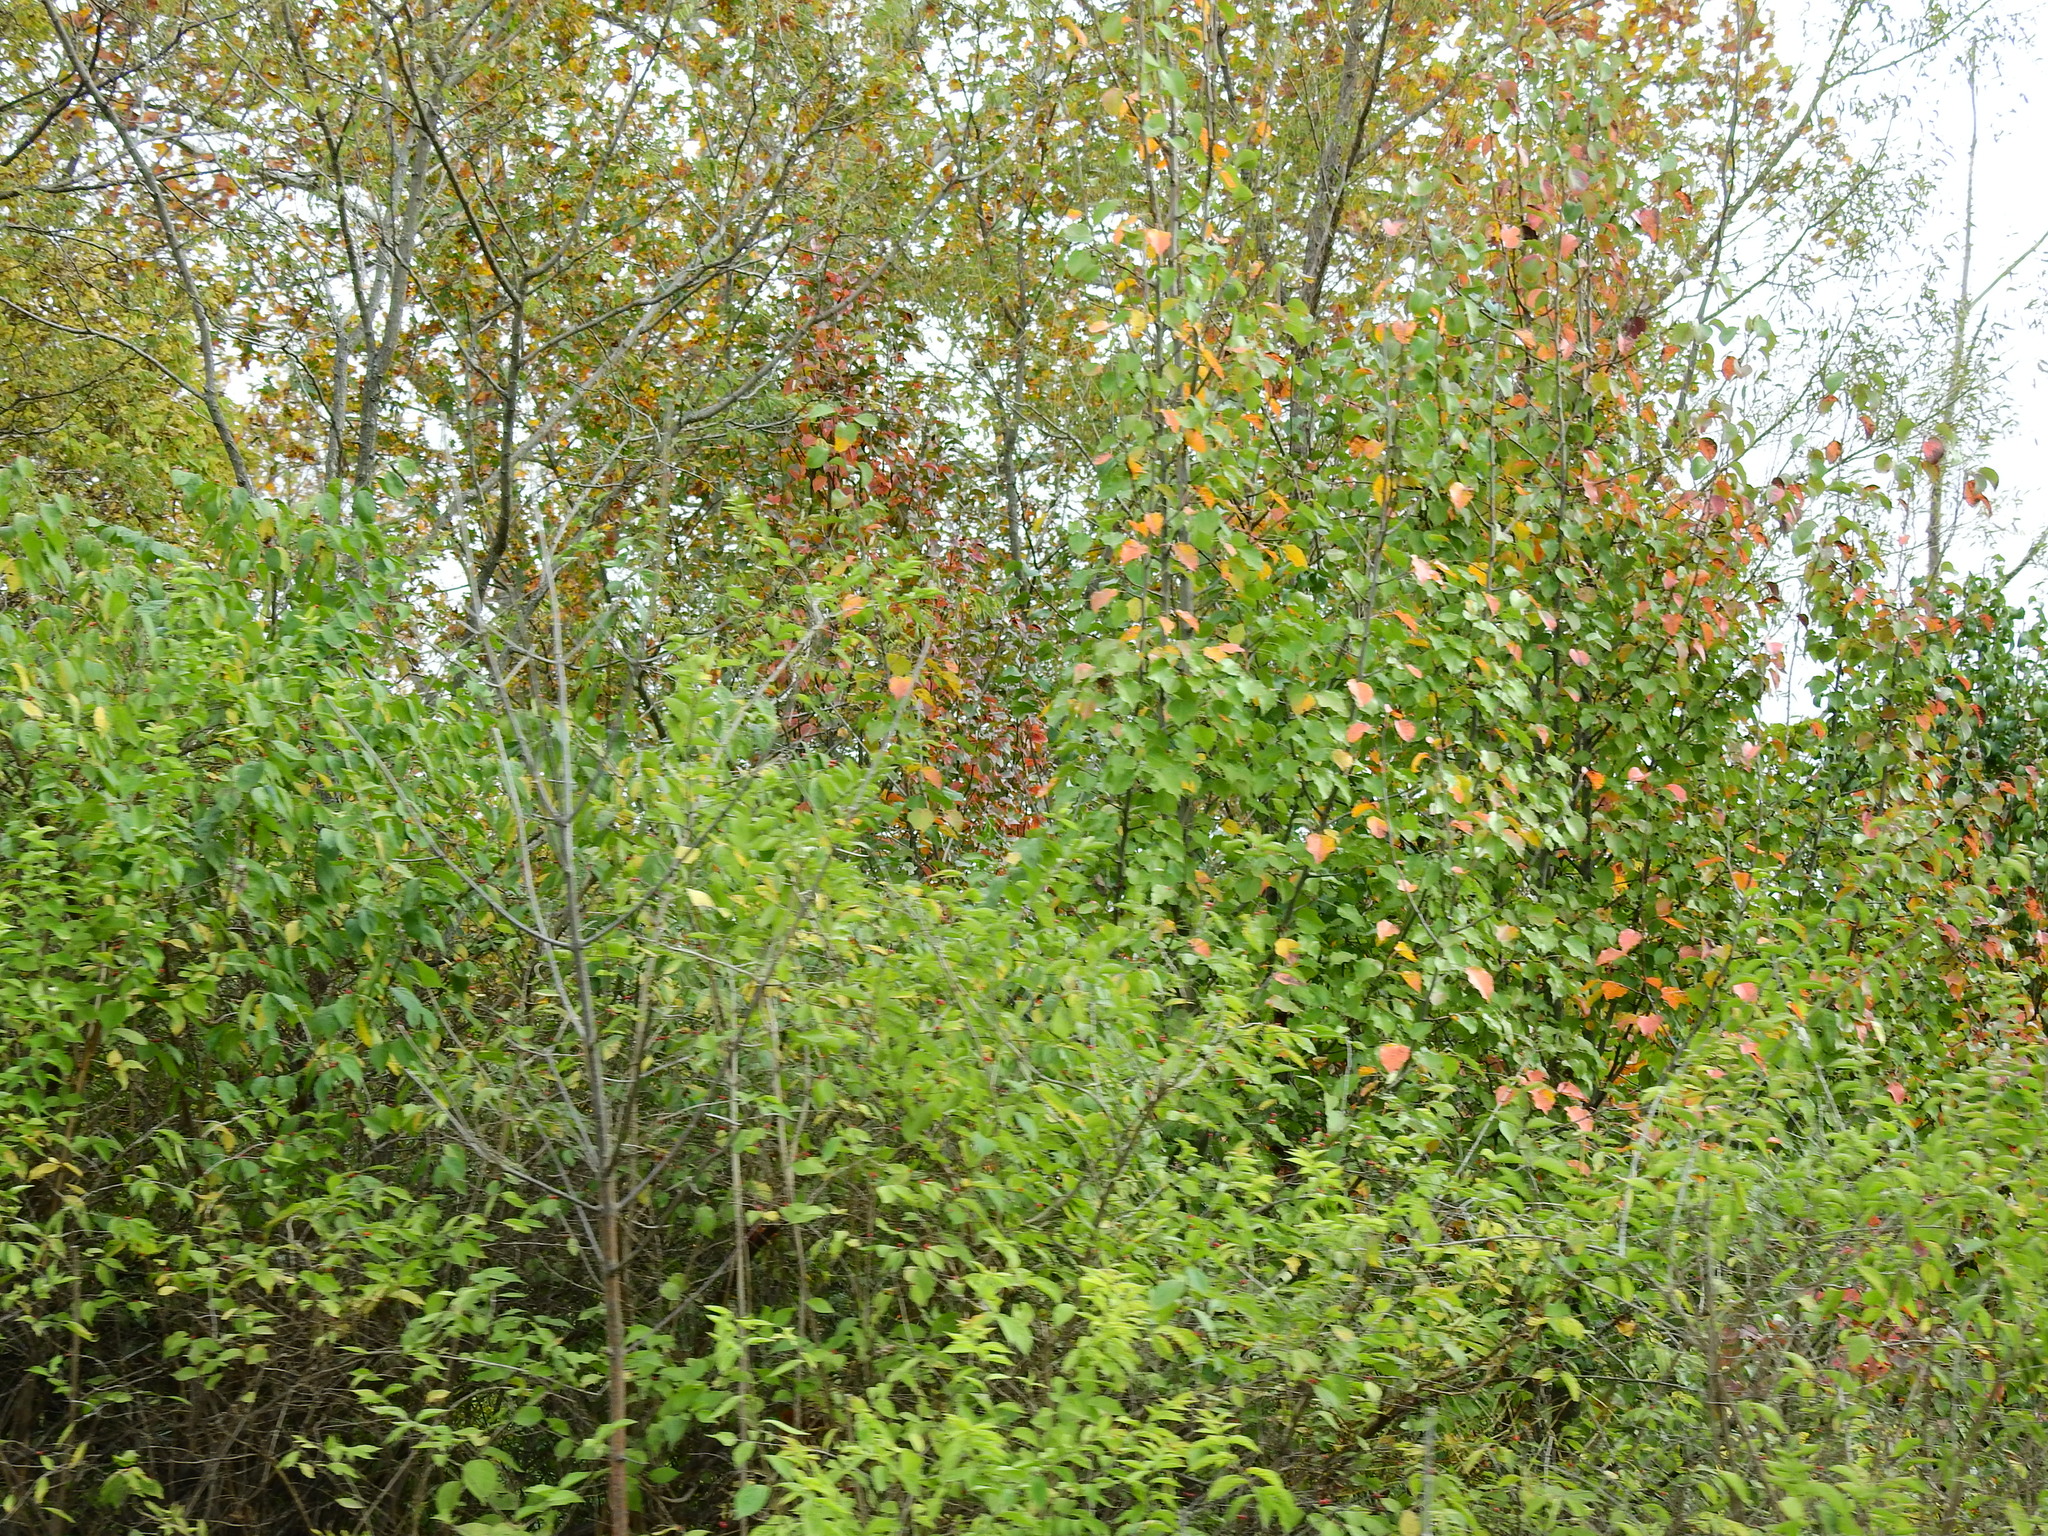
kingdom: Plantae
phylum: Tracheophyta
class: Magnoliopsida
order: Rosales
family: Rosaceae
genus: Pyrus
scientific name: Pyrus calleryana
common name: Callery pear
